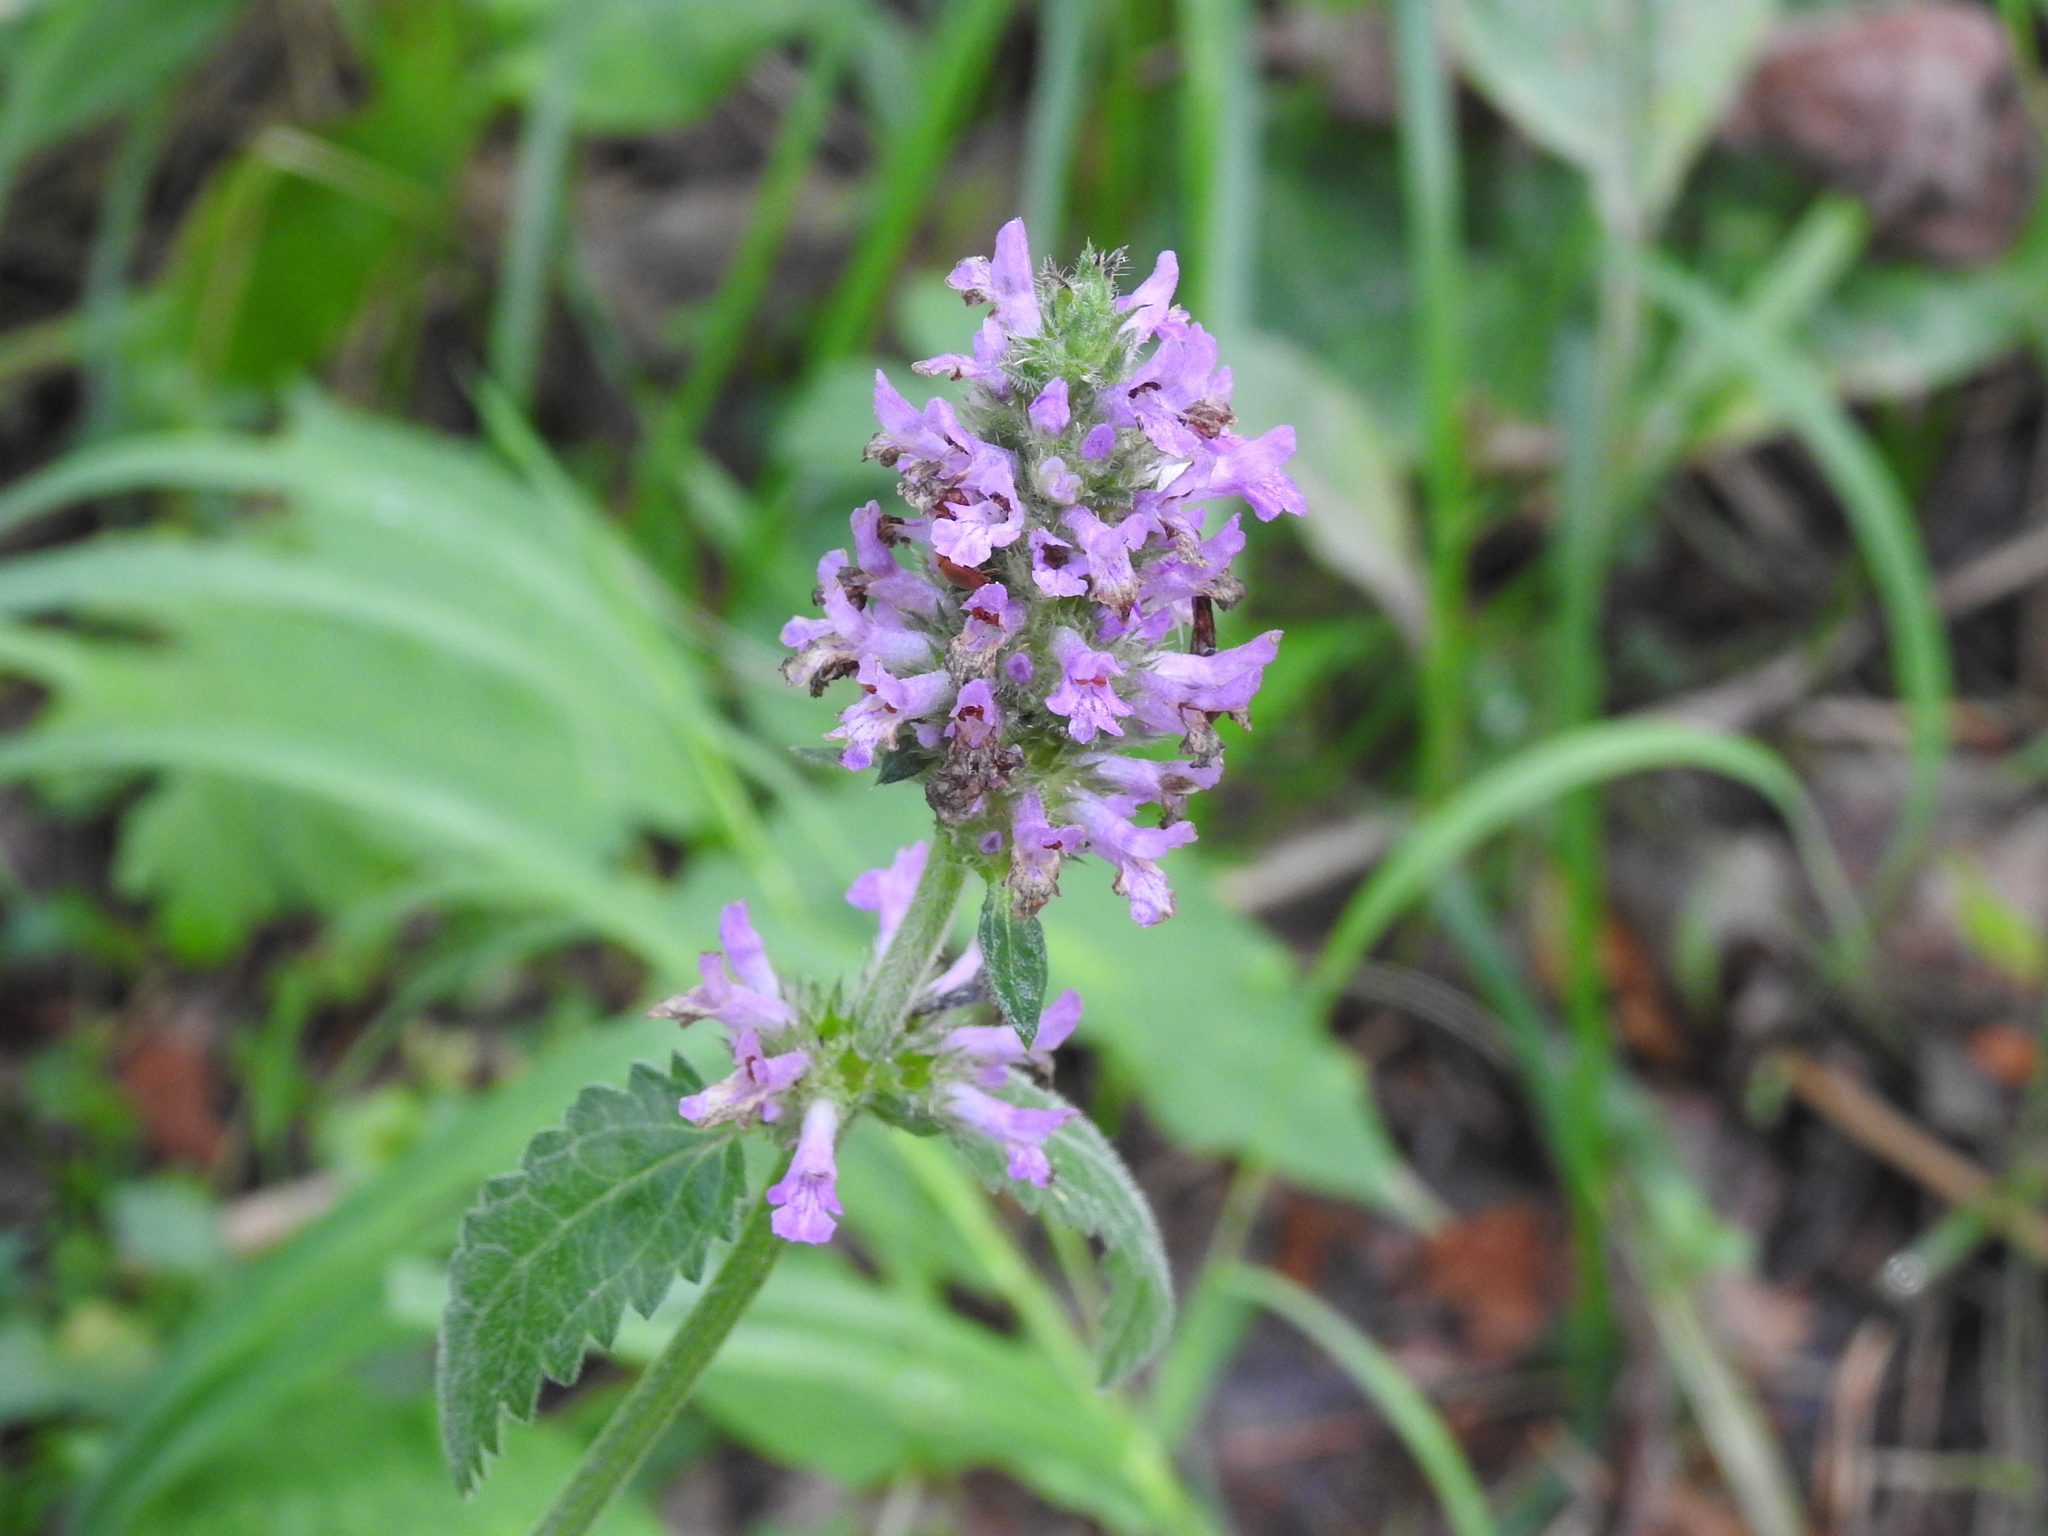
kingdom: Plantae
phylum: Tracheophyta
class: Magnoliopsida
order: Lamiales
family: Lamiaceae
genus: Betonica
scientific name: Betonica officinalis
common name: Bishop's-wort
